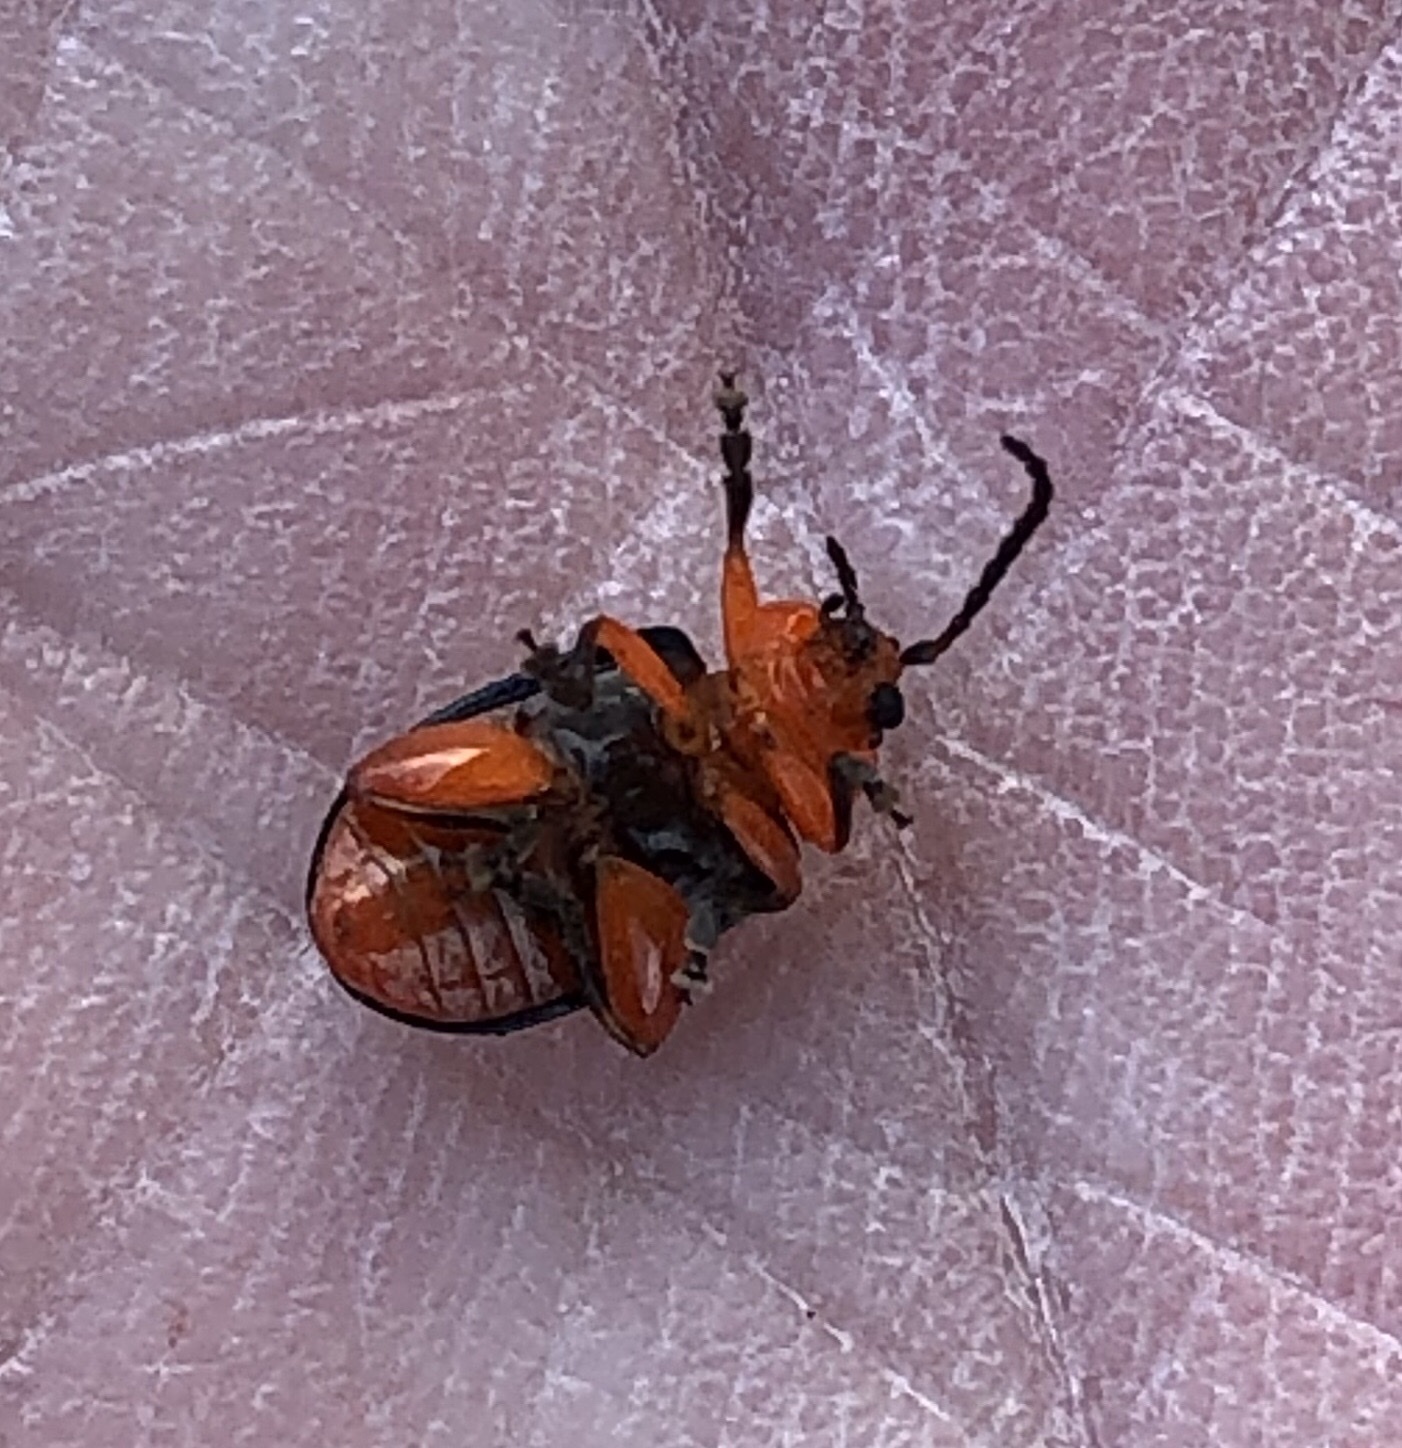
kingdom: Animalia
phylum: Arthropoda
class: Insecta
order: Coleoptera
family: Chrysomelidae
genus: Asphaera
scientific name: Asphaera lustrans
